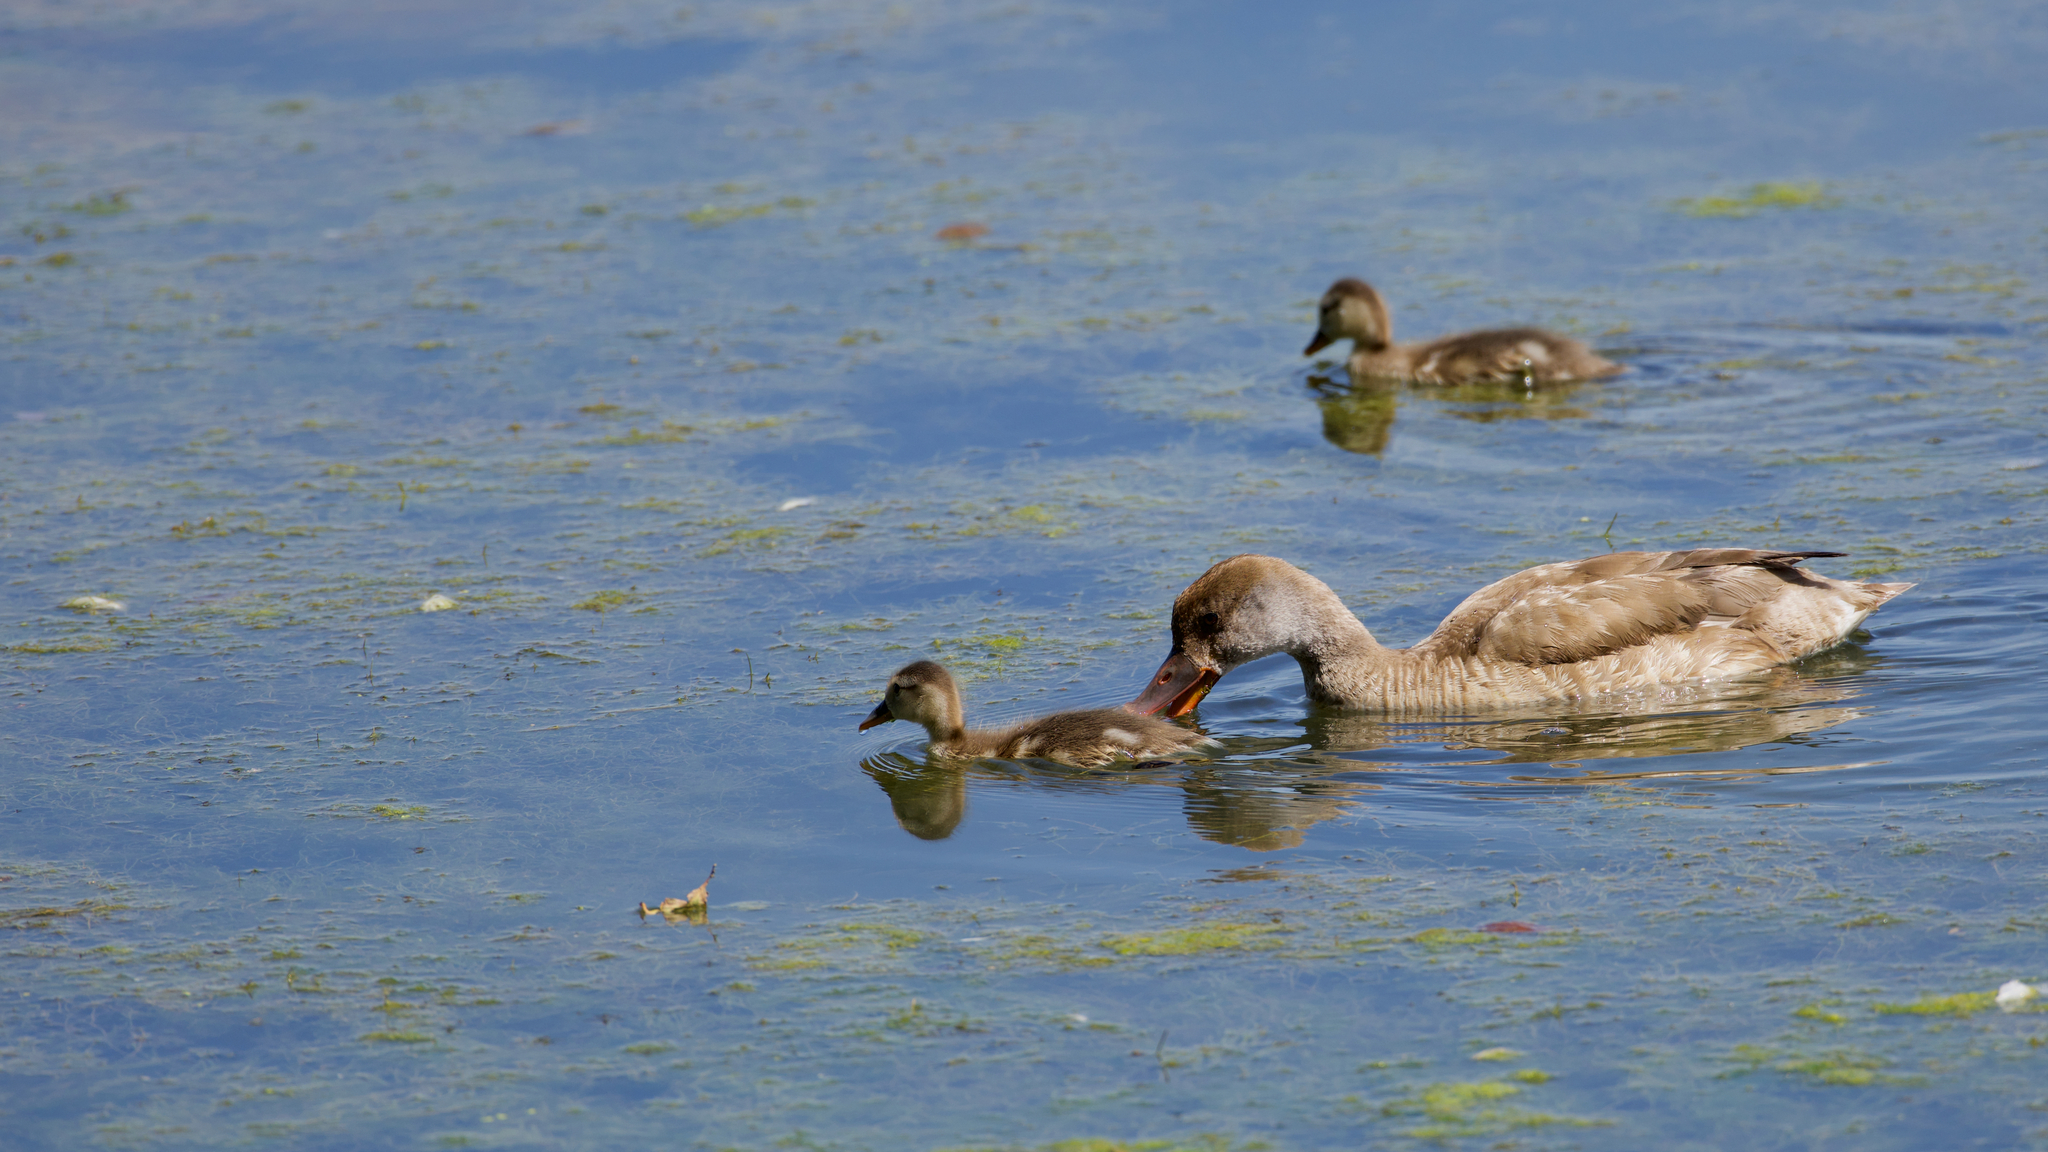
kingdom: Animalia
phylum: Chordata
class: Aves
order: Anseriformes
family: Anatidae
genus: Netta
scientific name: Netta rufina
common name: Red-crested pochard
